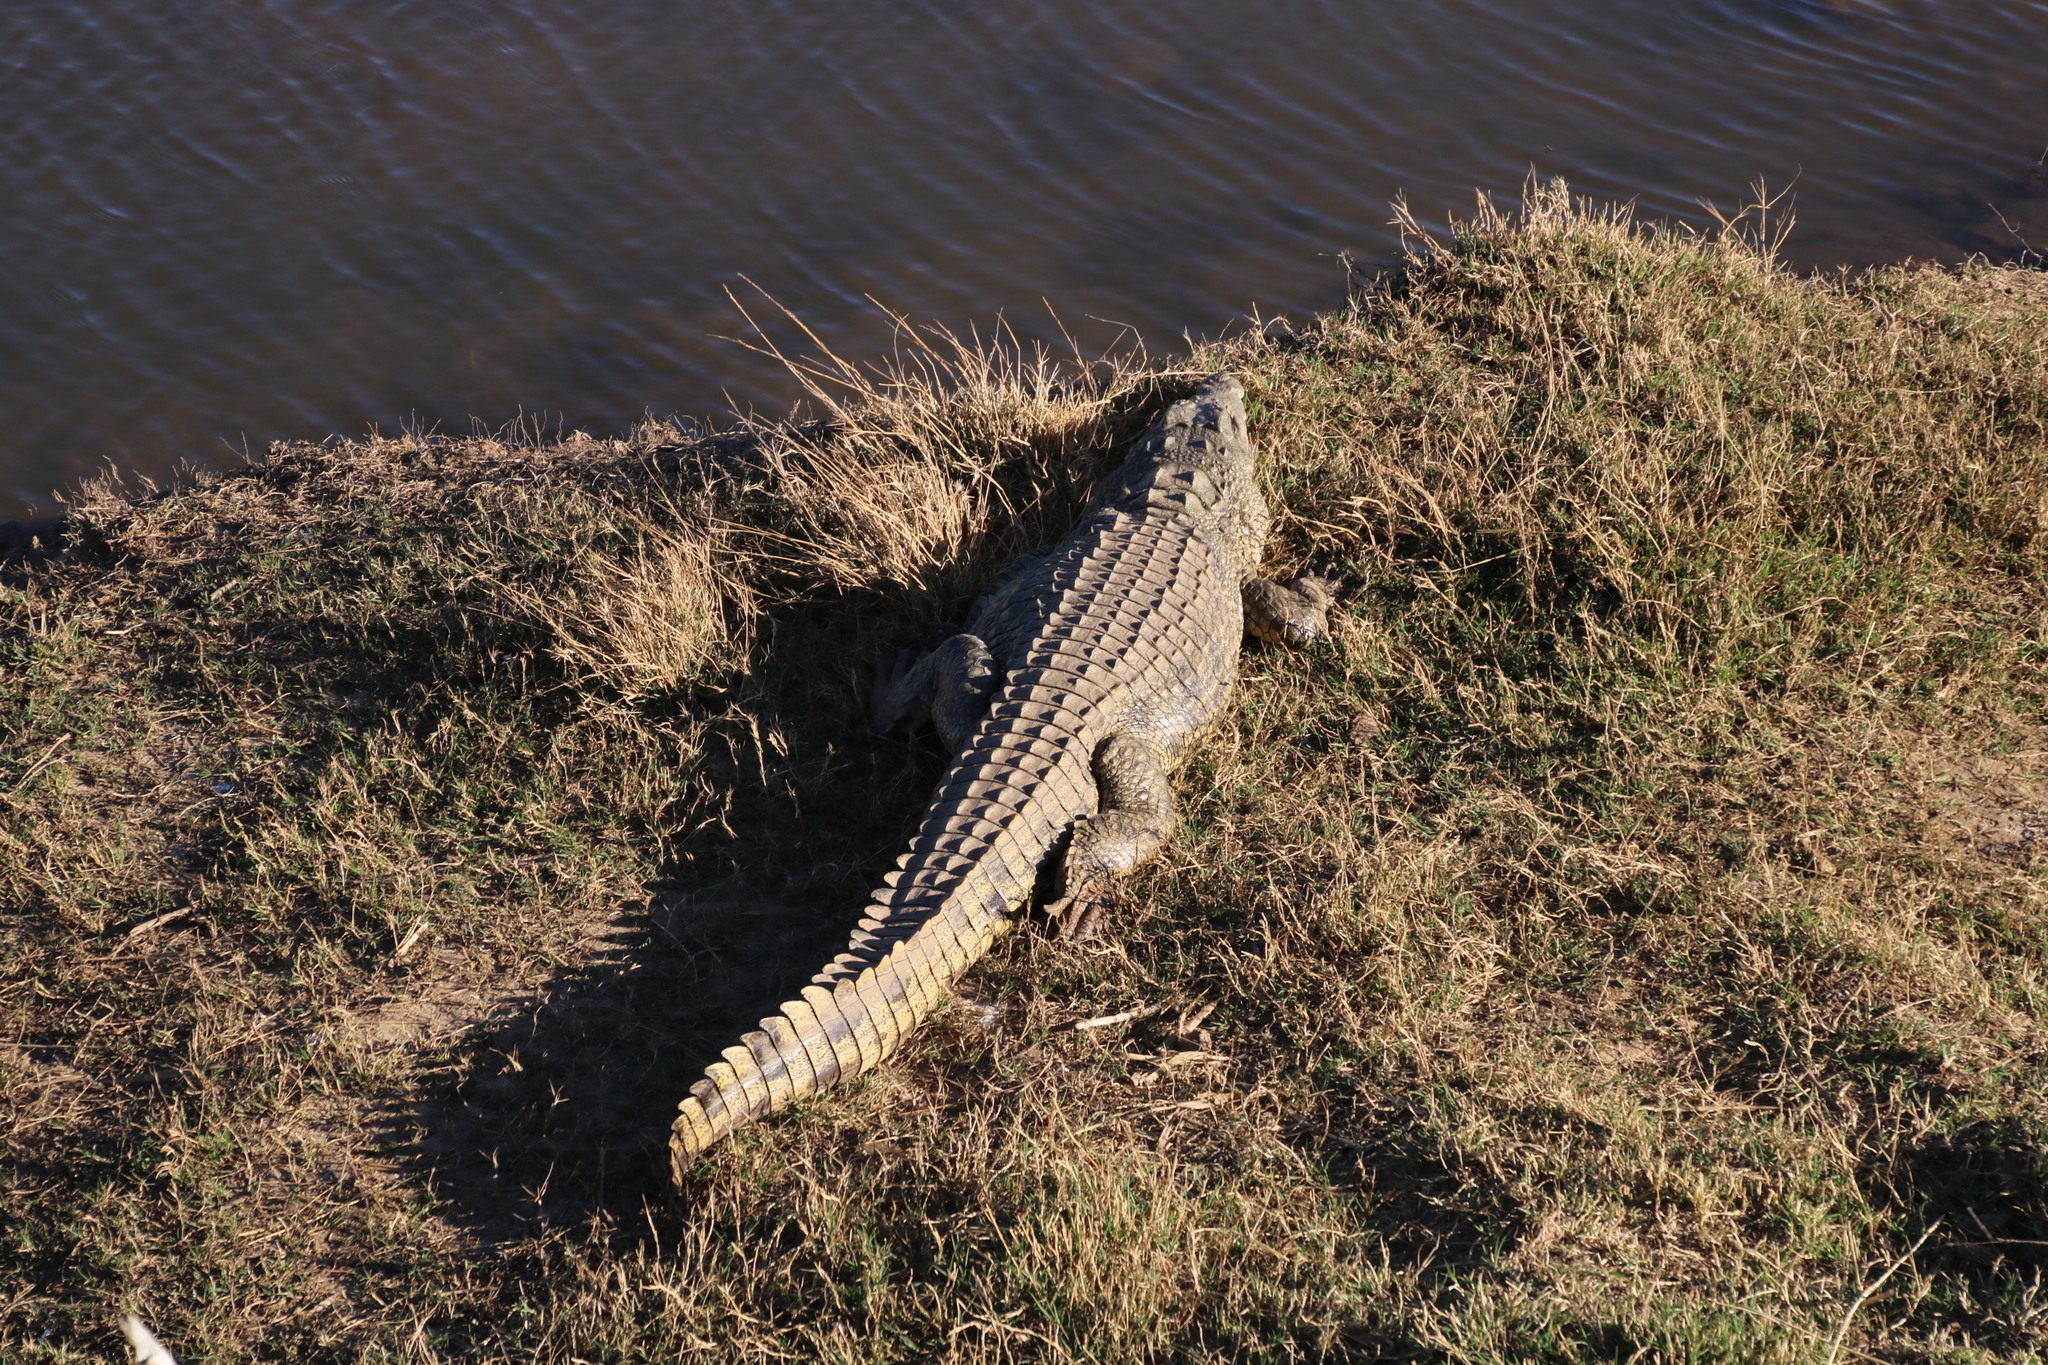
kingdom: Animalia
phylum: Chordata
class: Crocodylia
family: Crocodylidae
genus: Crocodylus
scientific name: Crocodylus niloticus
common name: Nile crocodile
